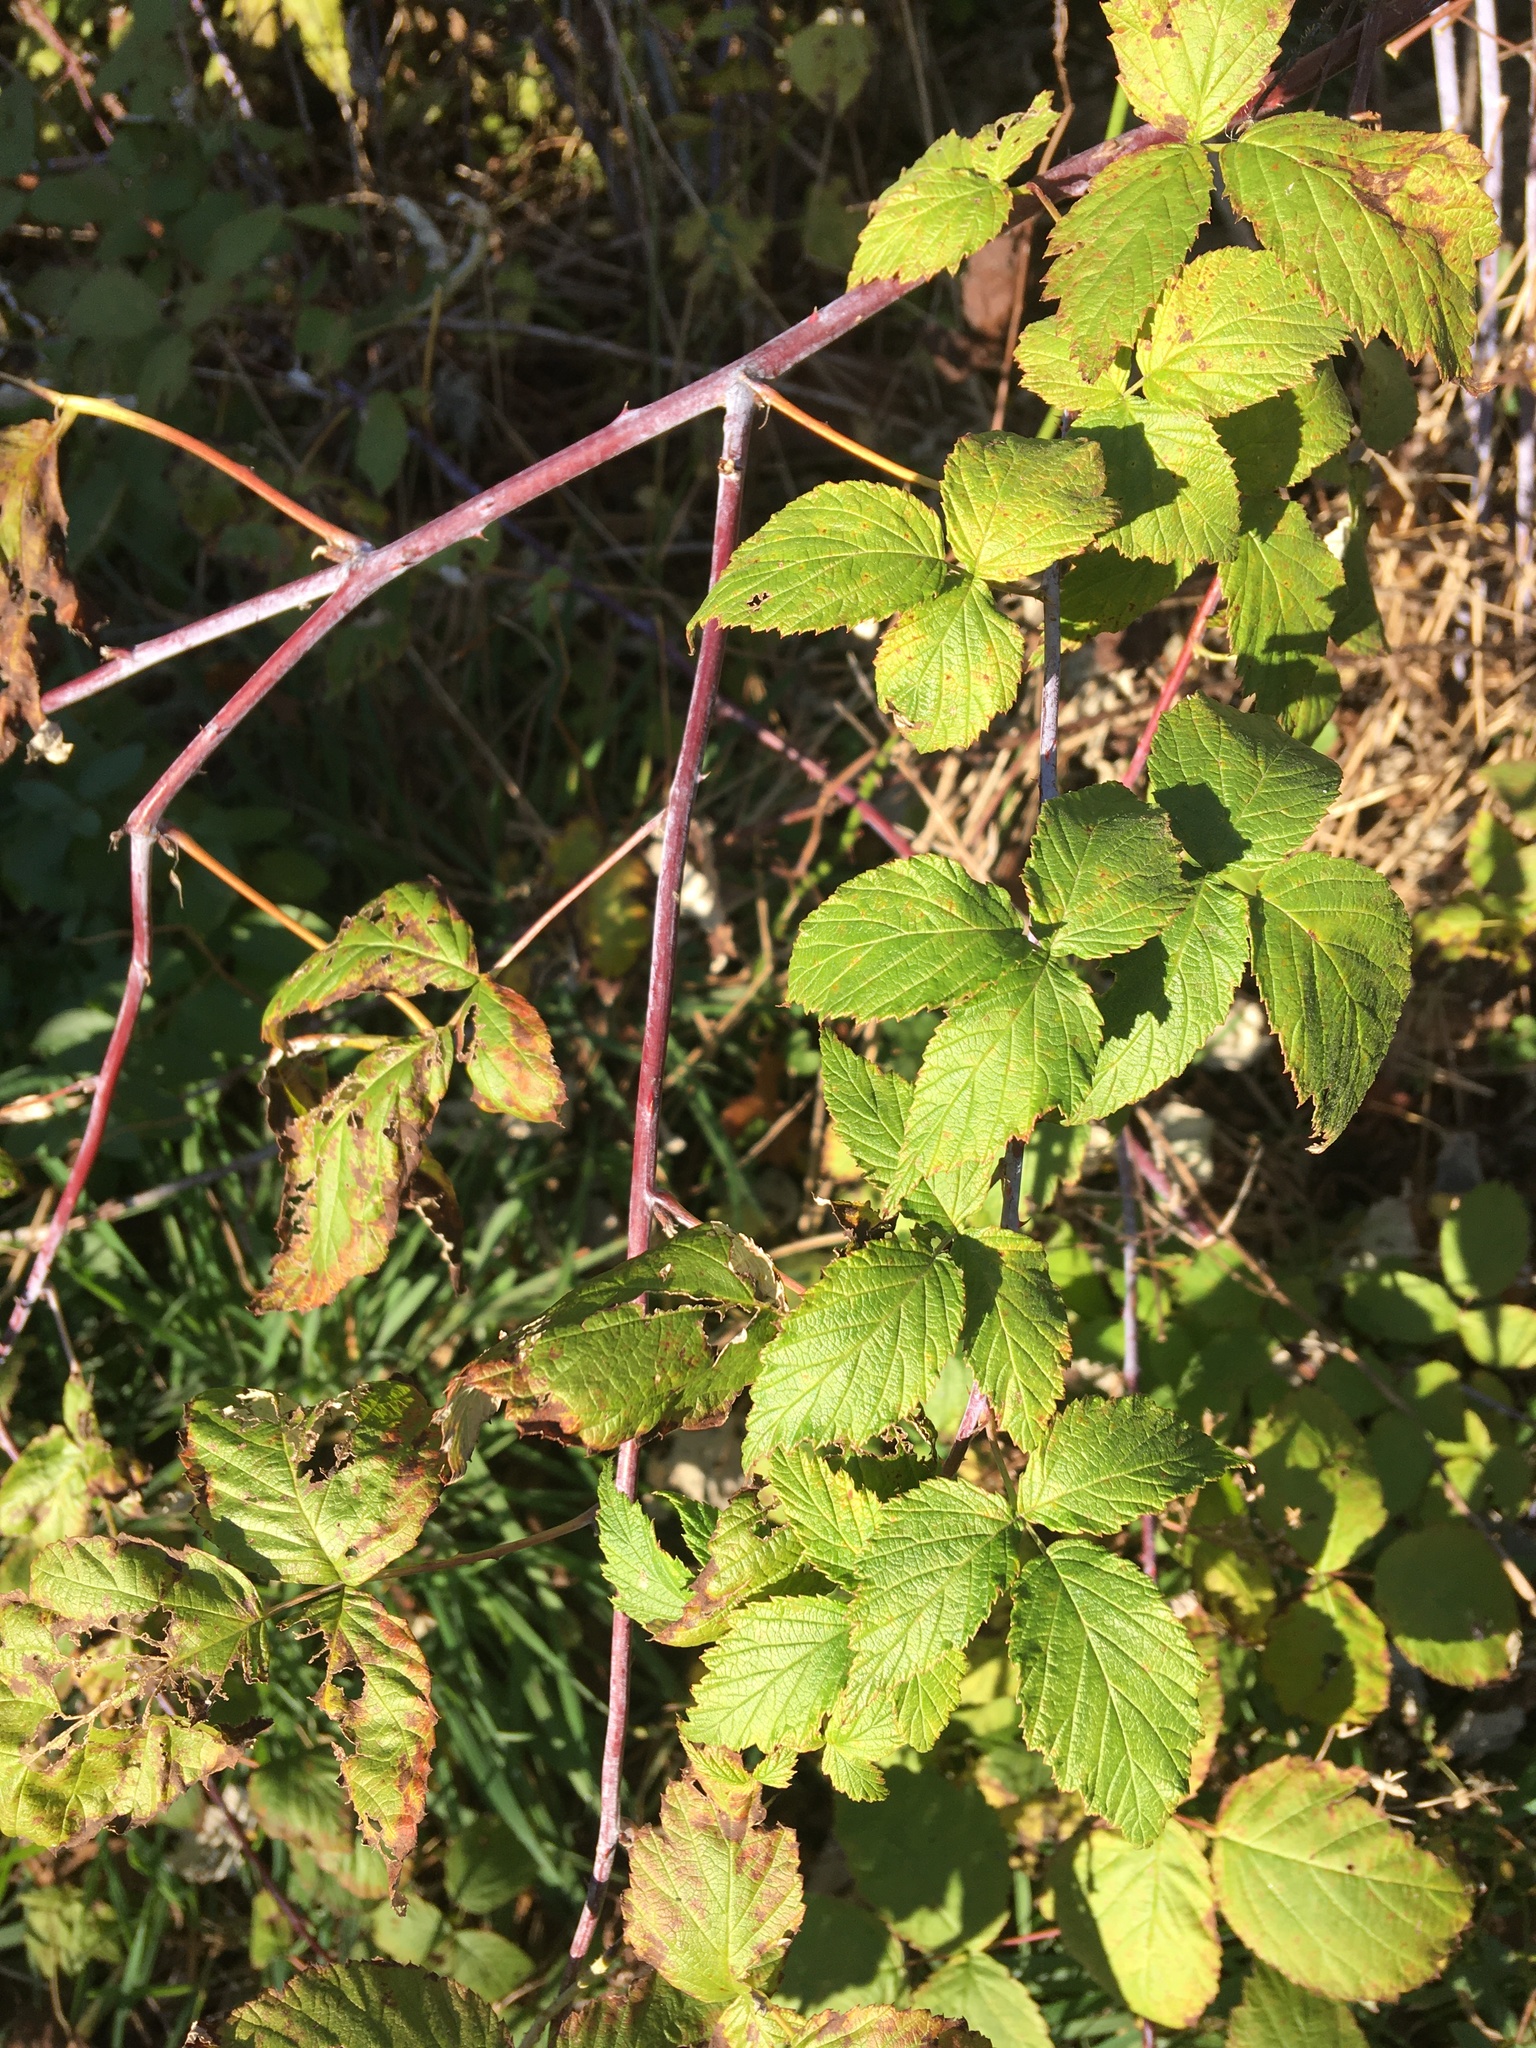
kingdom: Plantae
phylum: Tracheophyta
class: Magnoliopsida
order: Rosales
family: Rosaceae
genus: Rubus
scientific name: Rubus occidentalis
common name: Black raspberry
